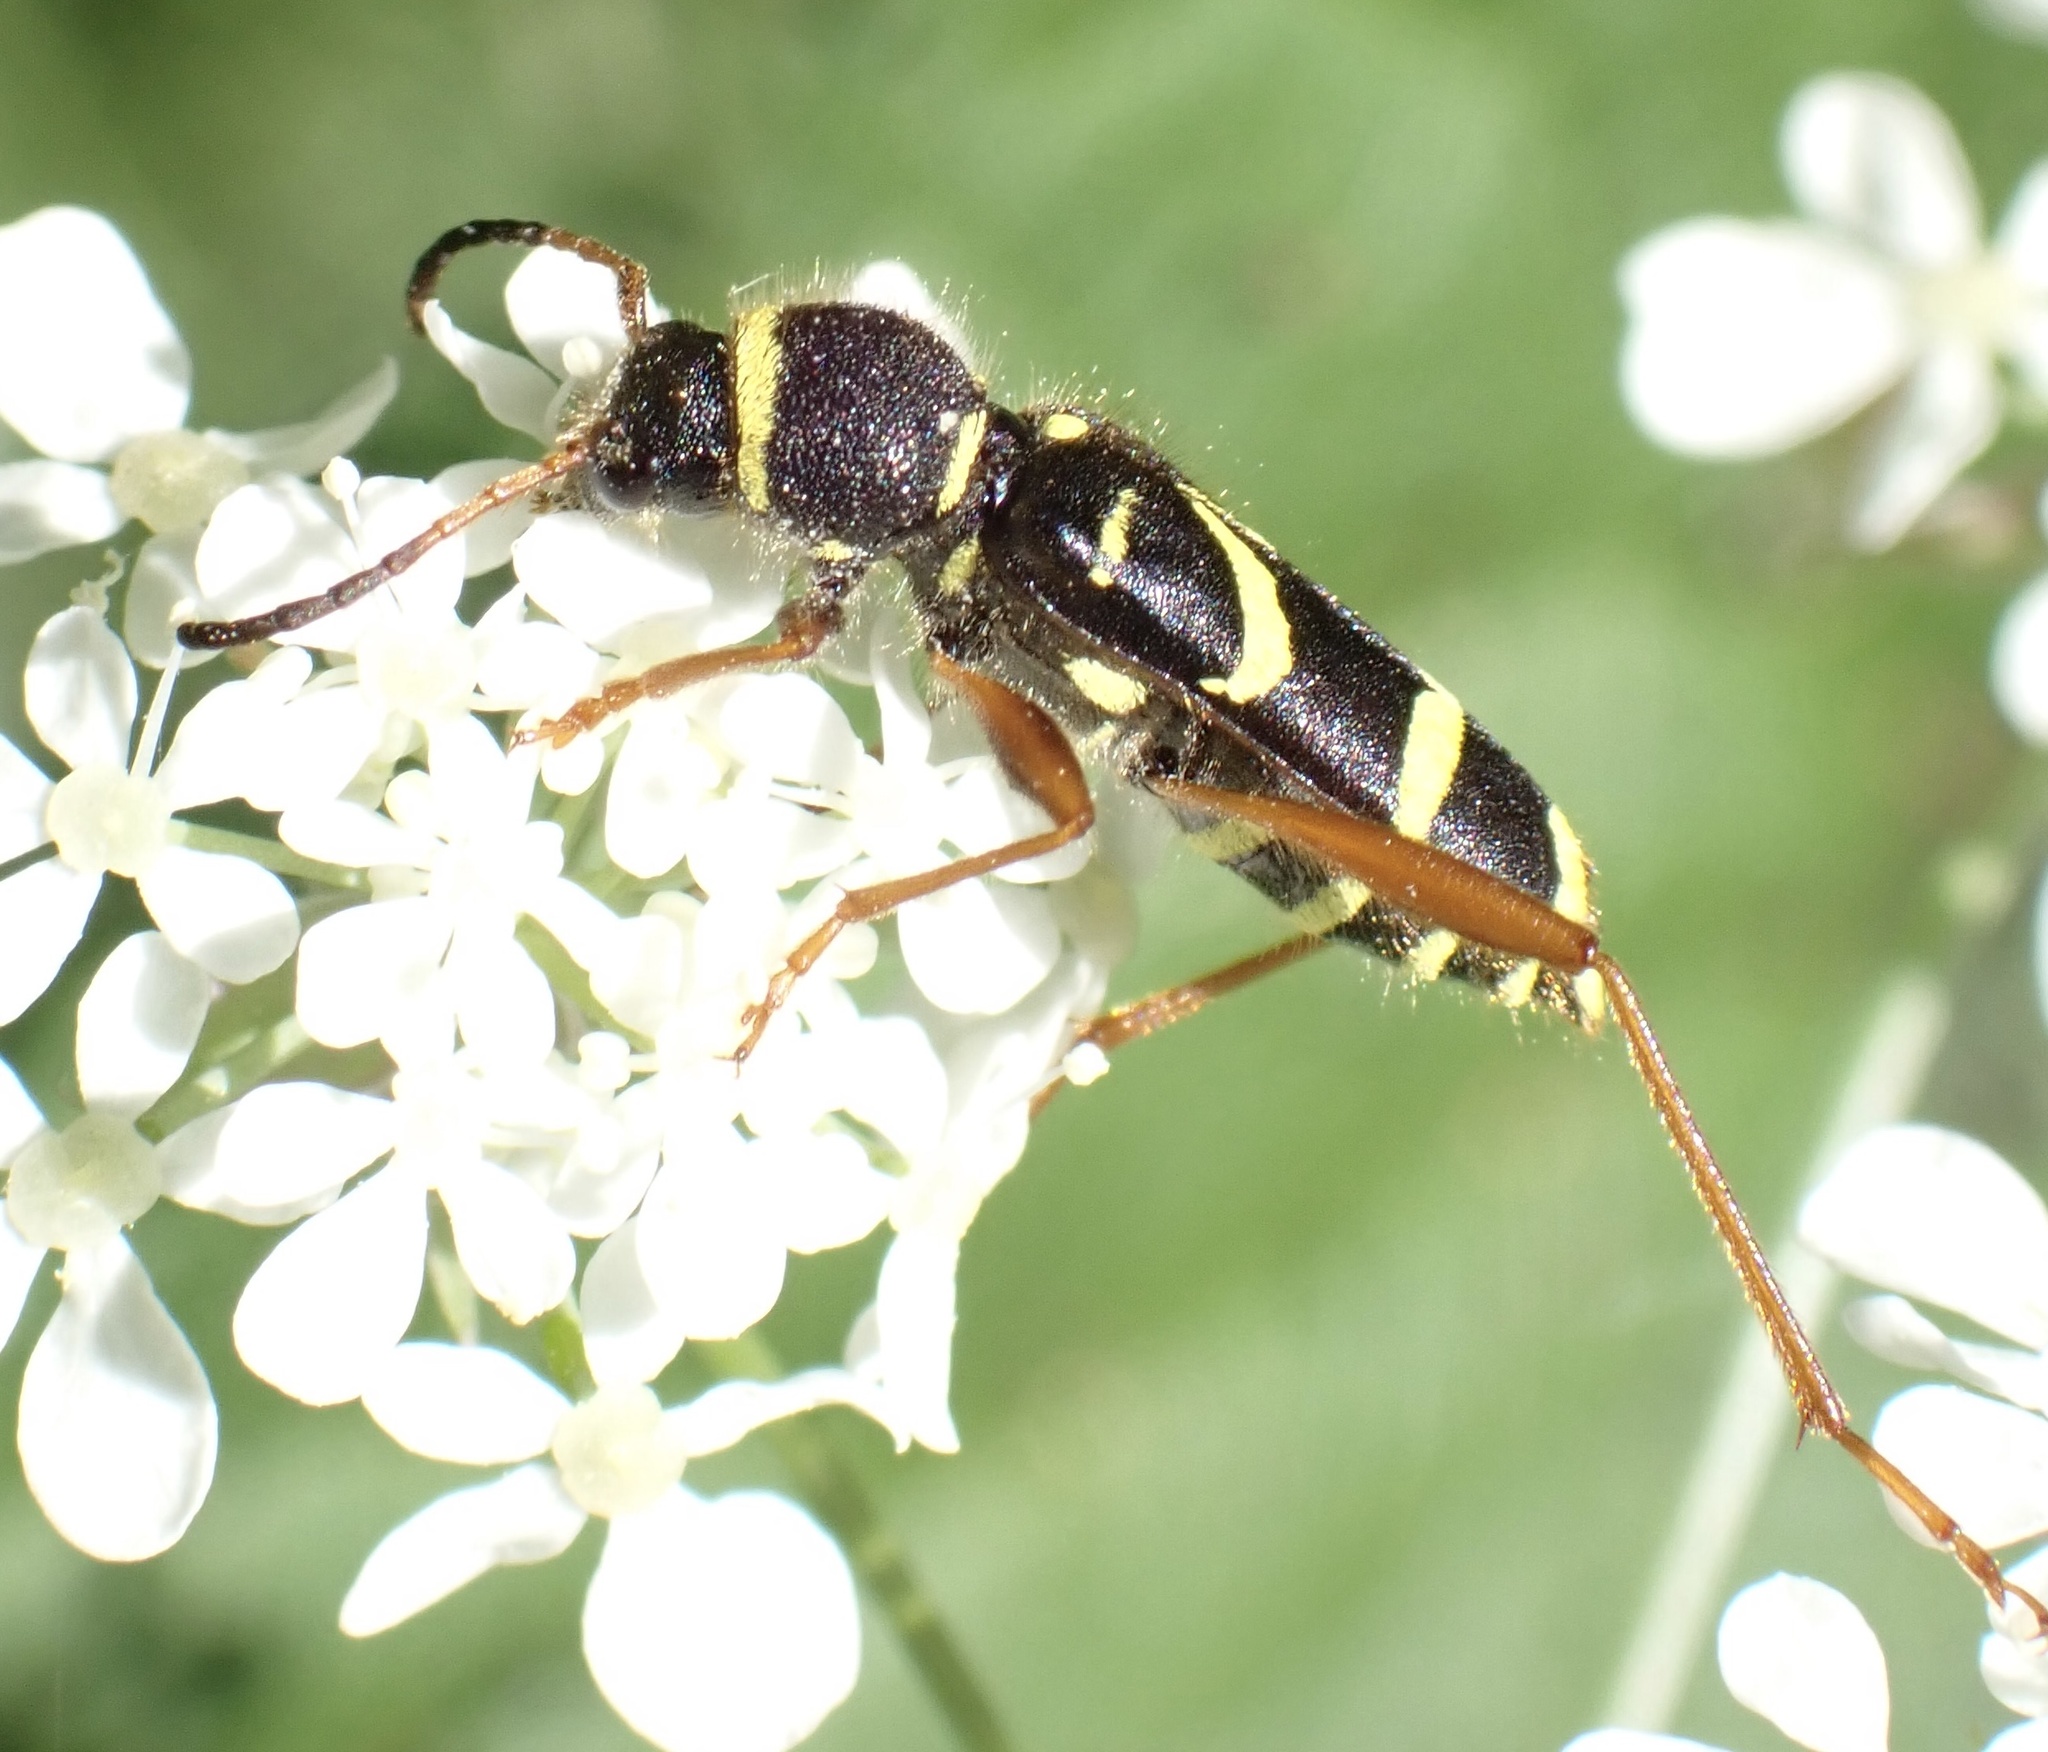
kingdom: Animalia
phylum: Arthropoda
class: Insecta
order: Coleoptera
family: Cerambycidae
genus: Clytus
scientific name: Clytus arietis
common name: Wasp beetle
